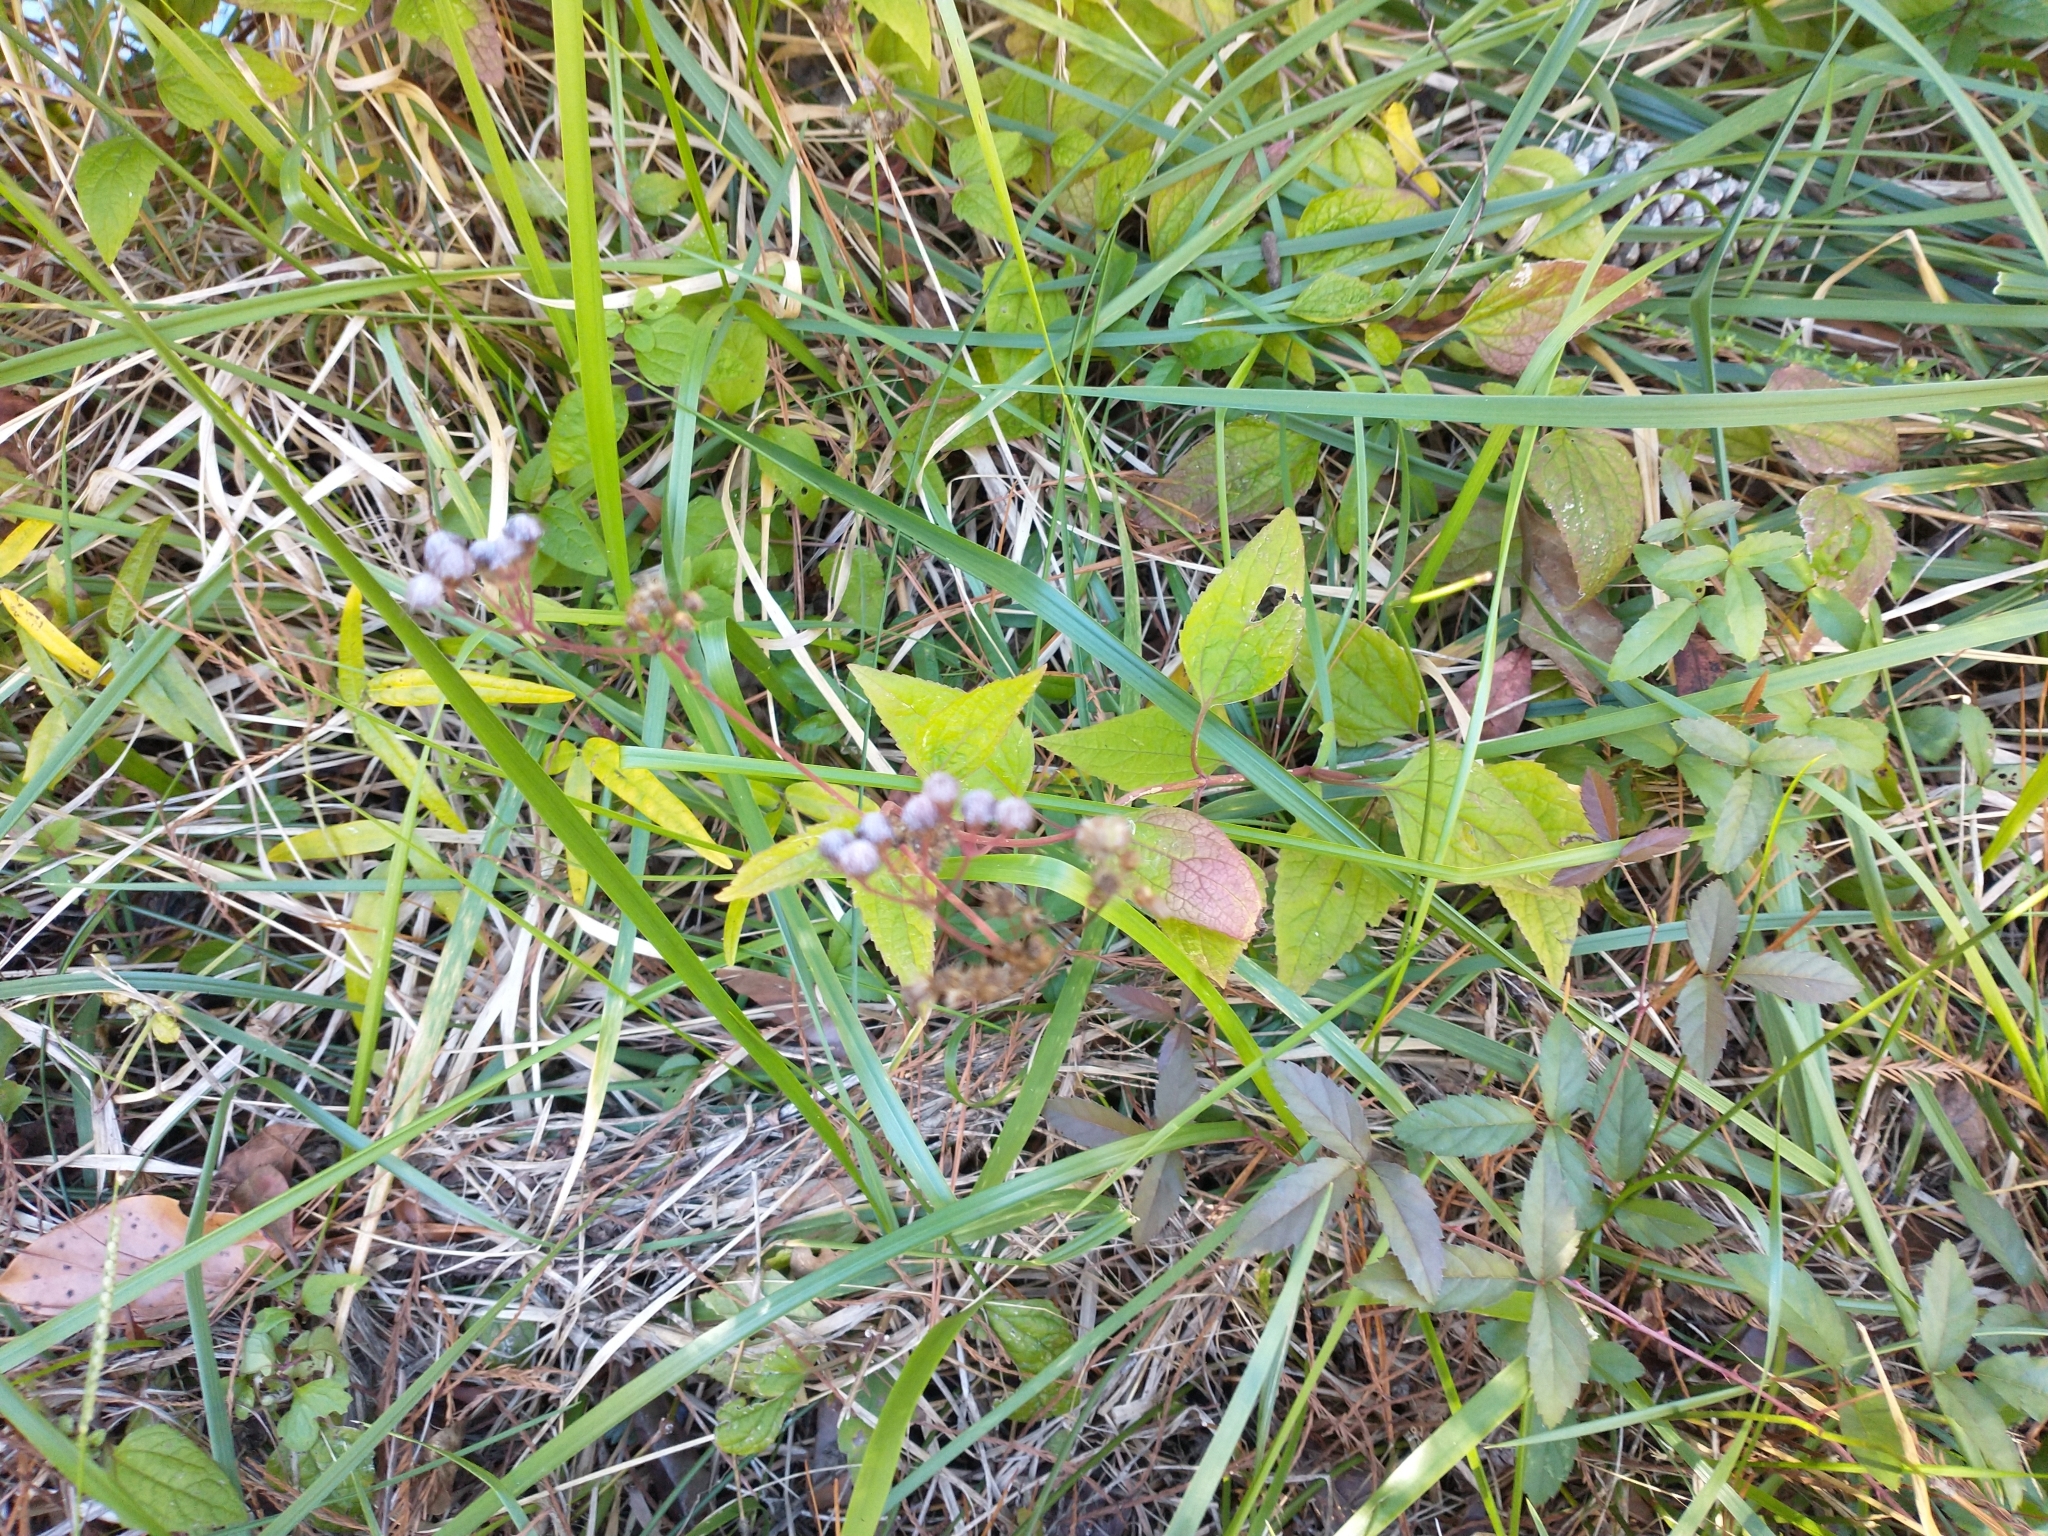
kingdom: Plantae
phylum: Tracheophyta
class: Magnoliopsida
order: Asterales
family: Asteraceae
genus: Conoclinium
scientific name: Conoclinium coelestinum
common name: Blue mistflower
